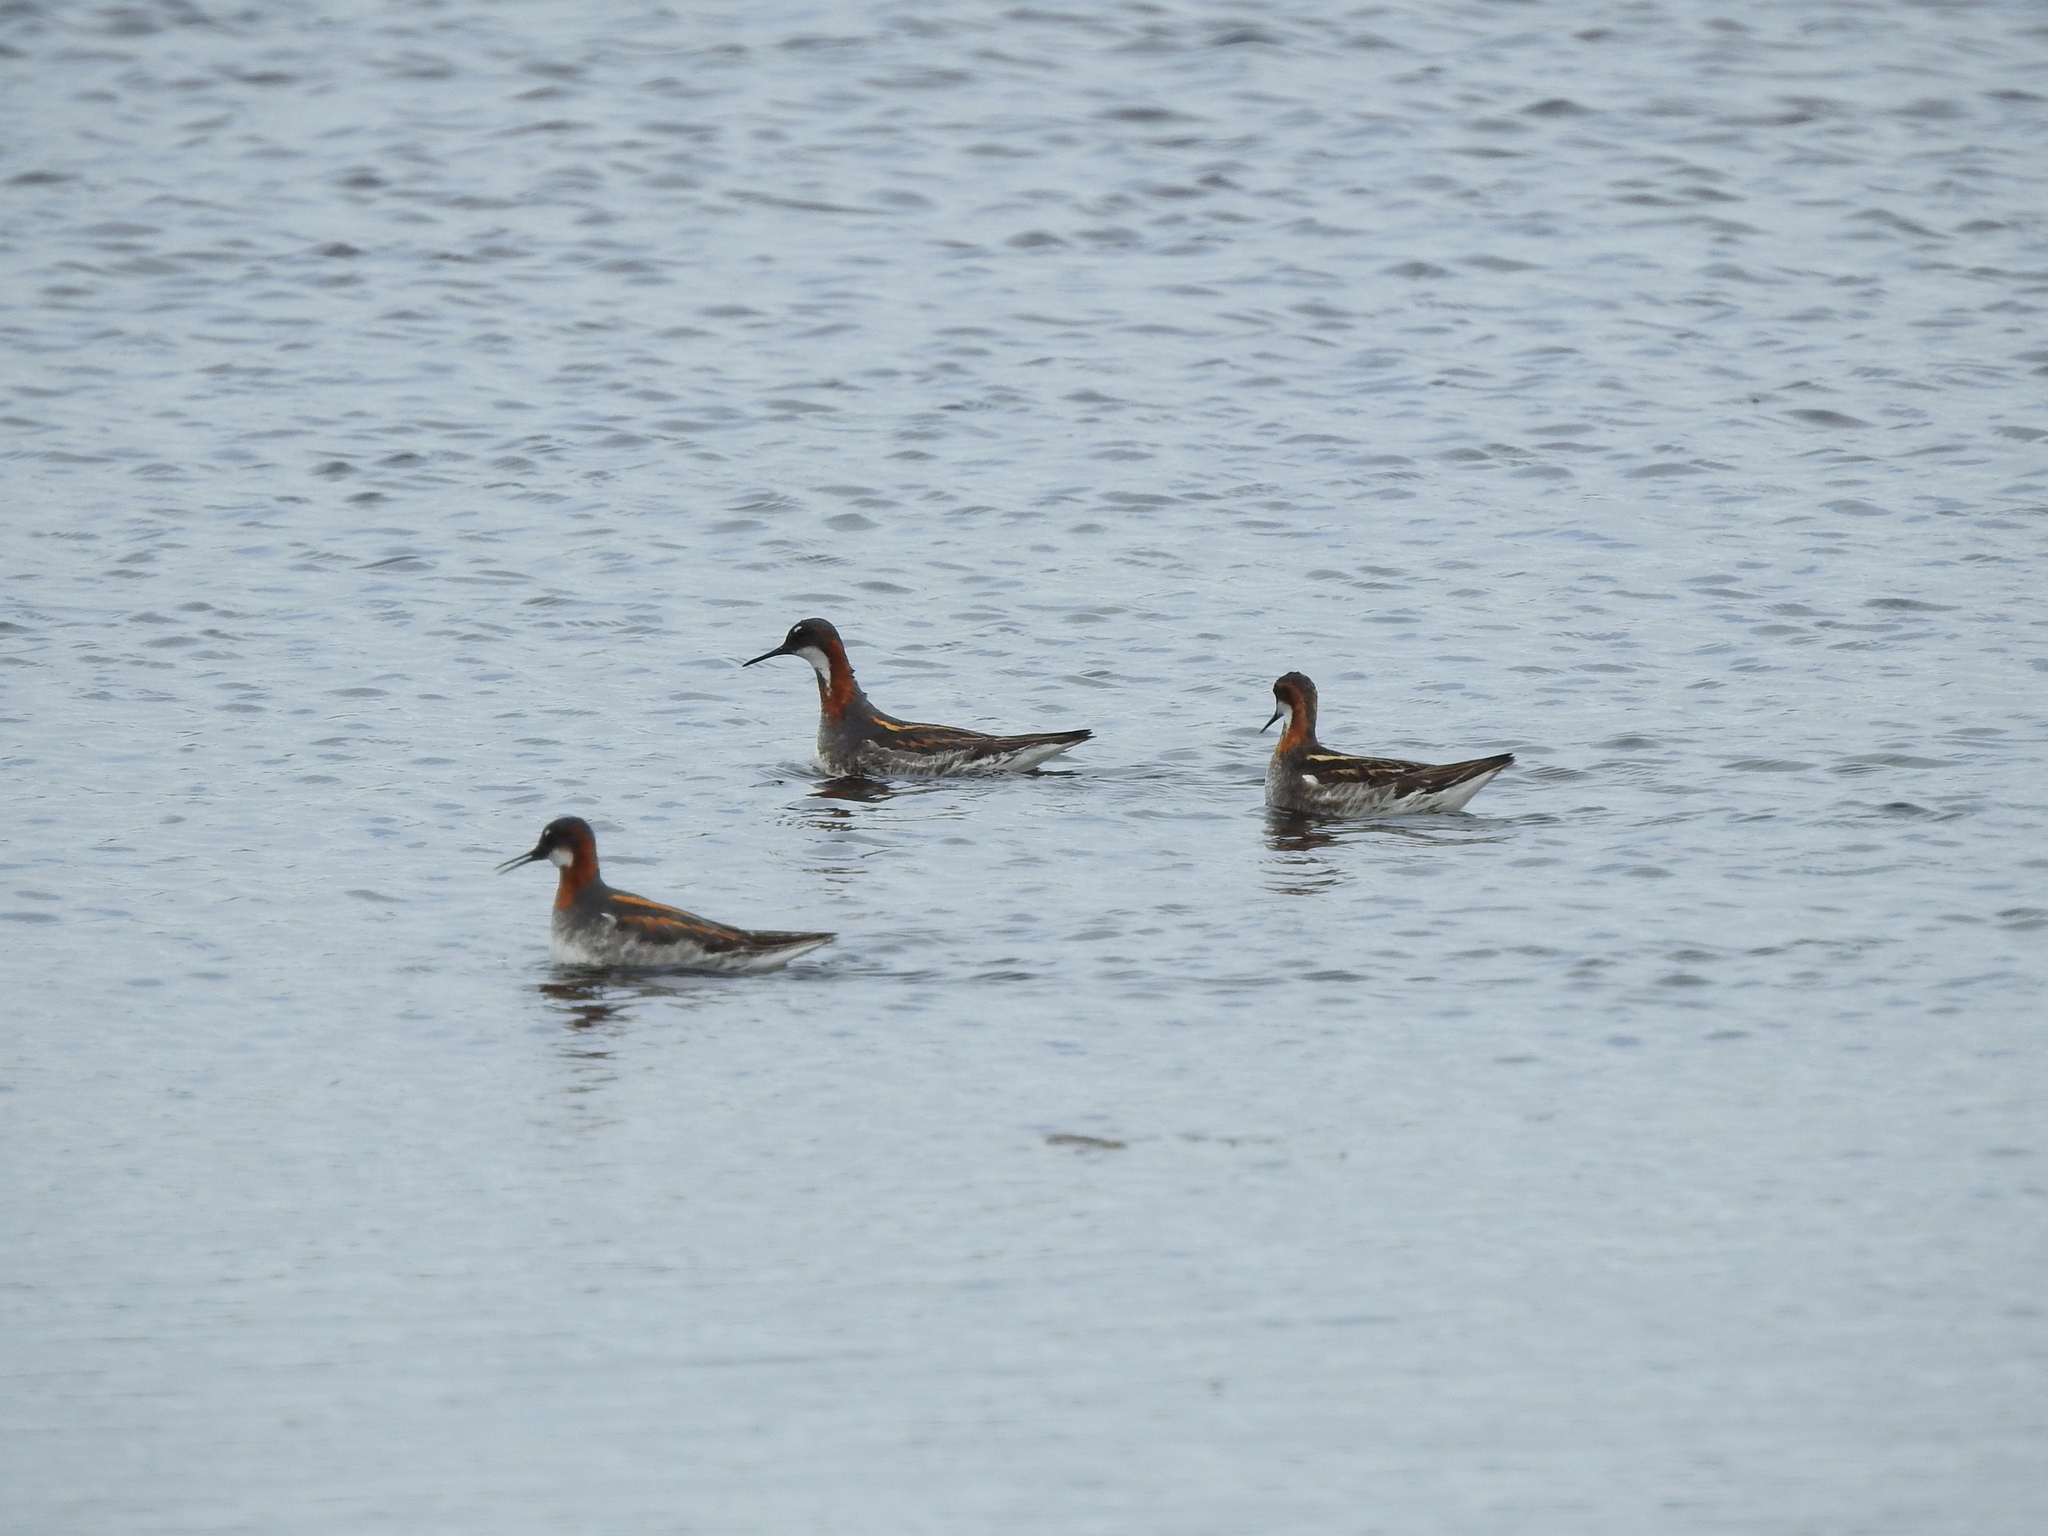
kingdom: Animalia
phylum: Chordata
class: Aves
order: Charadriiformes
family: Scolopacidae
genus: Phalaropus
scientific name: Phalaropus lobatus
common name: Red-necked phalarope
